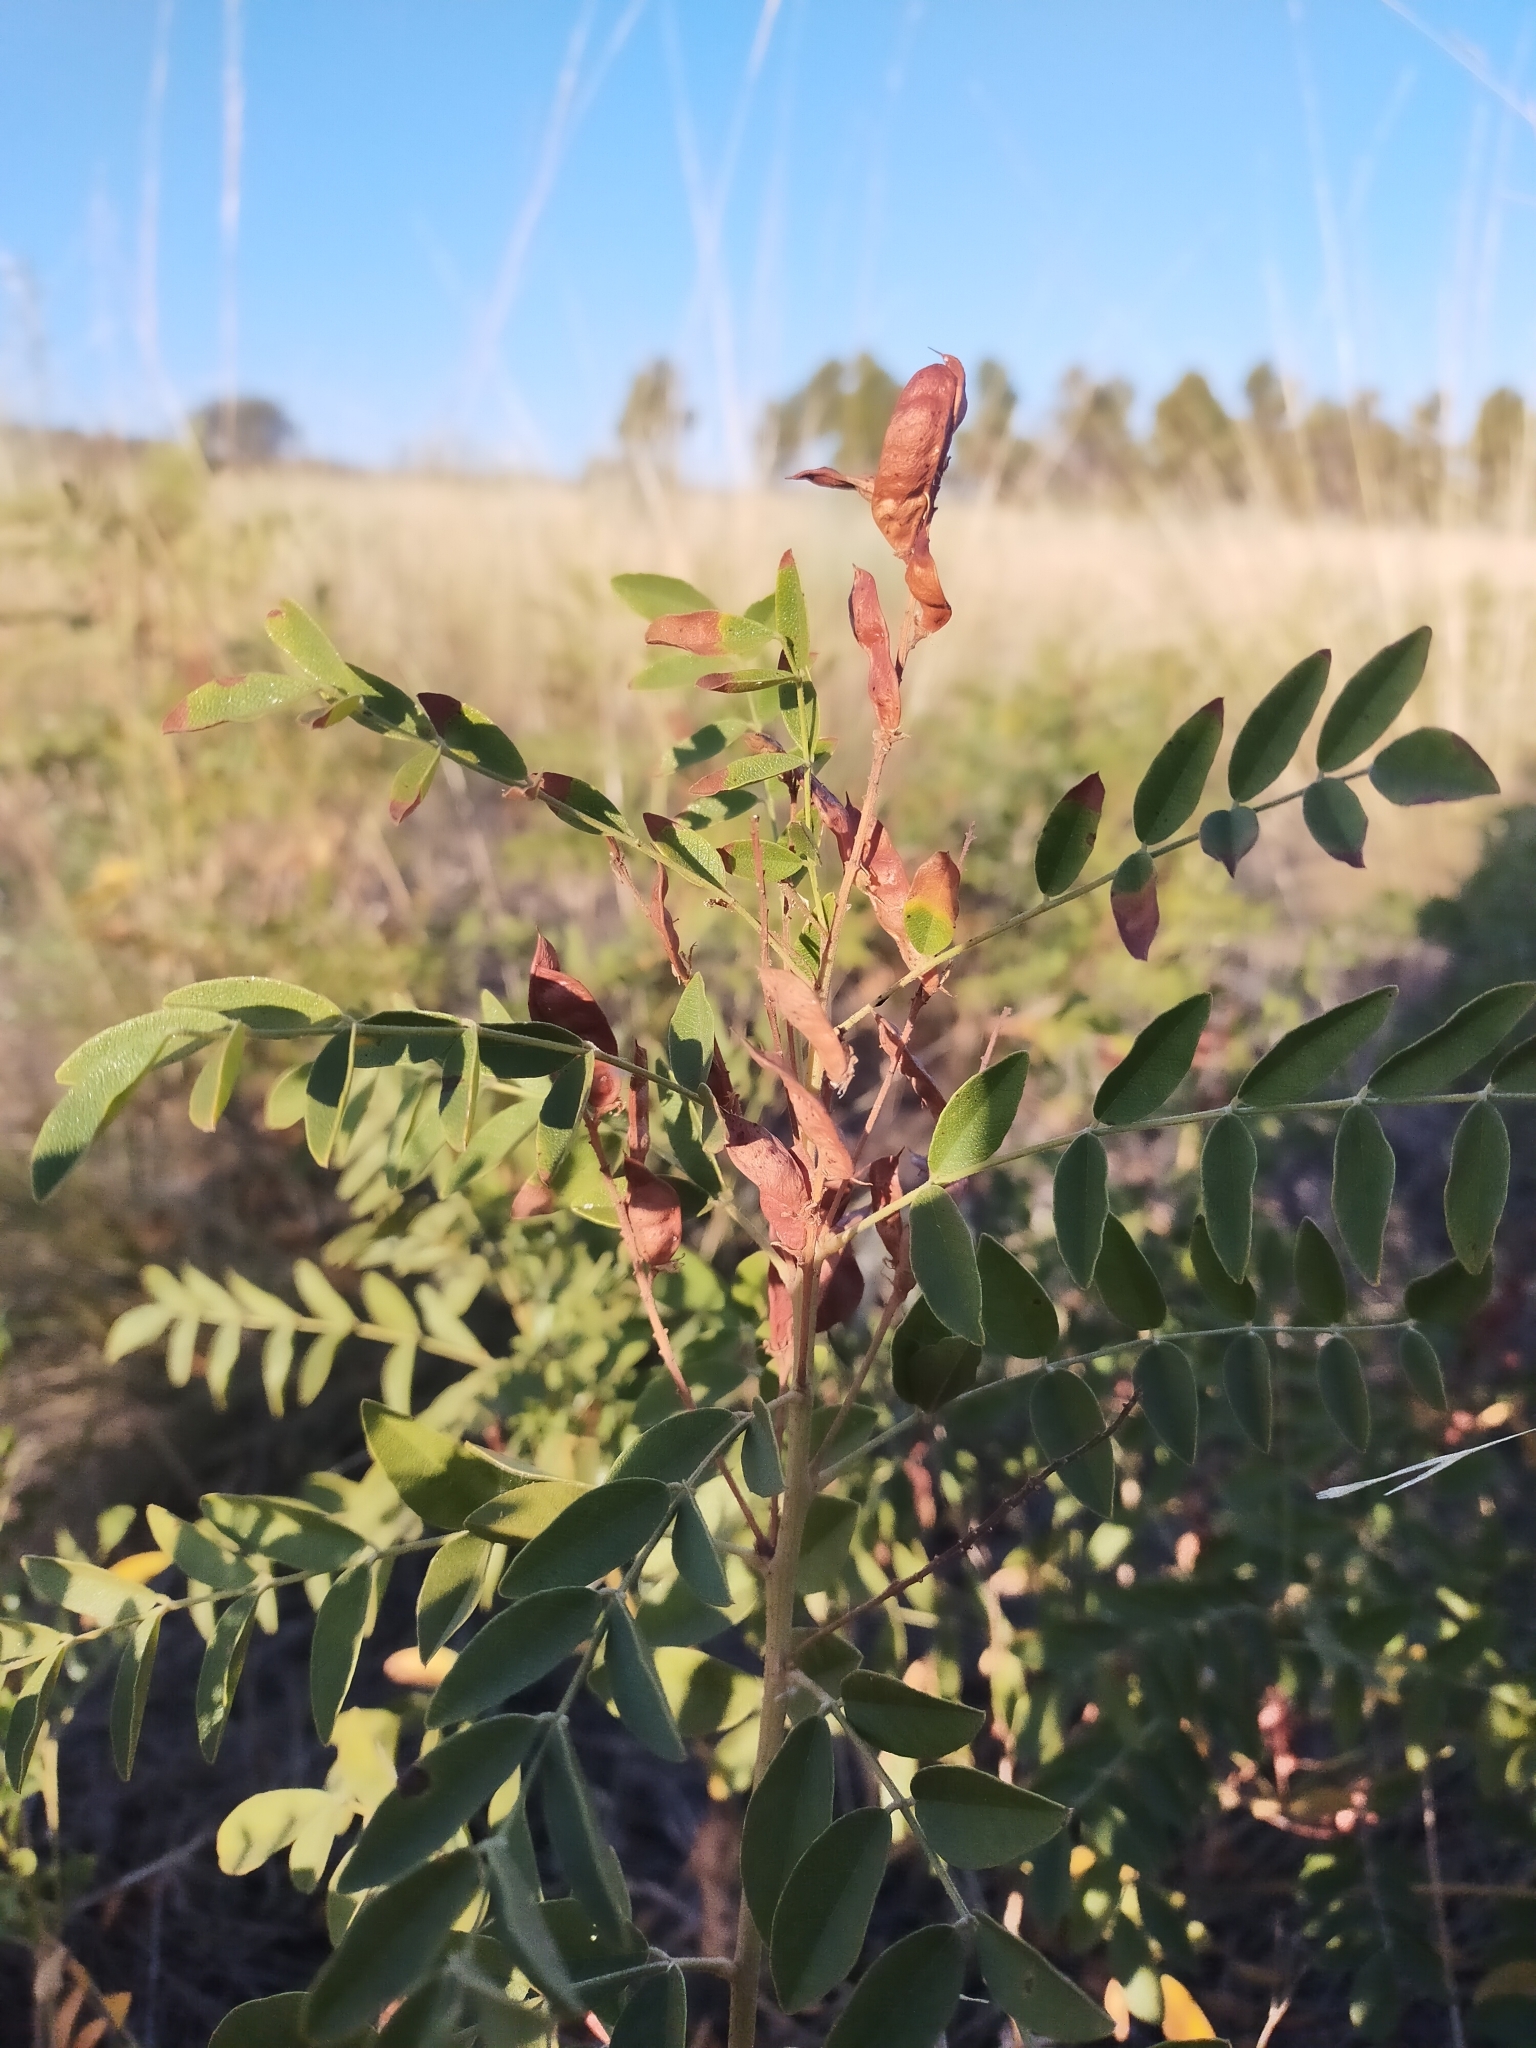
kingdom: Plantae
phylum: Tracheophyta
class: Magnoliopsida
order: Fabales
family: Fabaceae
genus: Glycyrrhiza
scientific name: Glycyrrhiza glabra
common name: Liquorice
